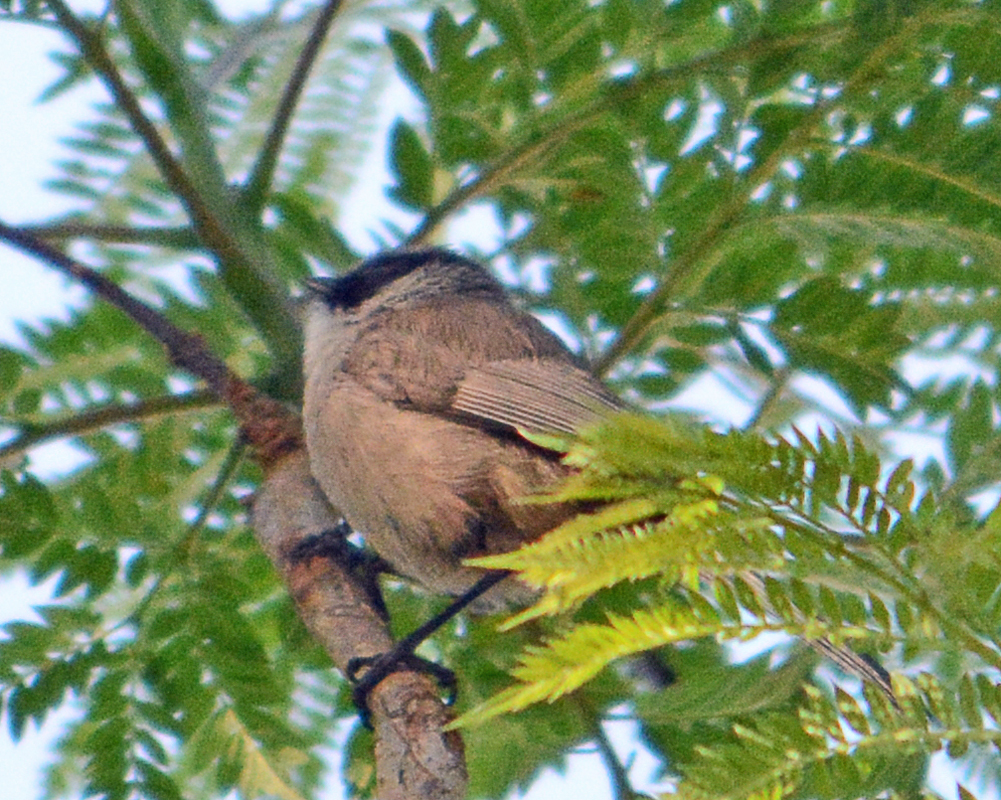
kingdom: Animalia
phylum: Chordata
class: Aves
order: Passeriformes
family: Aegithalidae
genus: Psaltriparus
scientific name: Psaltriparus minimus
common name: American bushtit
